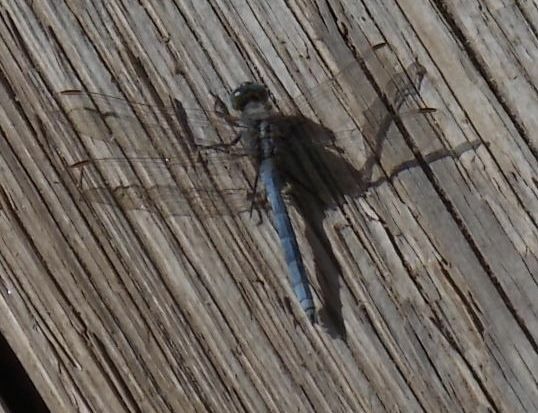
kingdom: Animalia
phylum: Arthropoda
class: Insecta
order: Odonata
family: Libellulidae
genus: Orthetrum
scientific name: Orthetrum chrysostigma
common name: Epaulet skimmer
